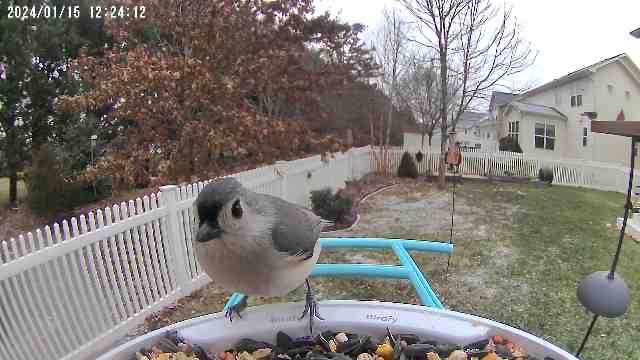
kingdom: Animalia
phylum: Chordata
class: Aves
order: Passeriformes
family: Paridae
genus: Baeolophus
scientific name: Baeolophus bicolor
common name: Tufted titmouse
